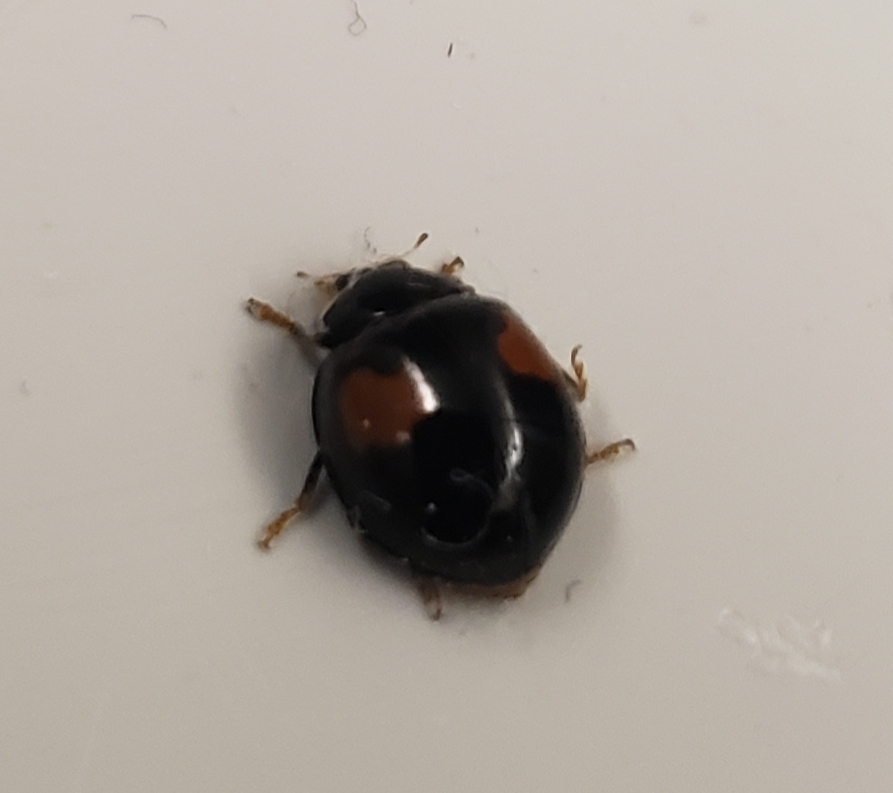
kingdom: Animalia
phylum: Arthropoda
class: Insecta
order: Coleoptera
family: Coccinellidae
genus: Olla
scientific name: Olla v-nigrum
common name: Ashy gray lady beetle
